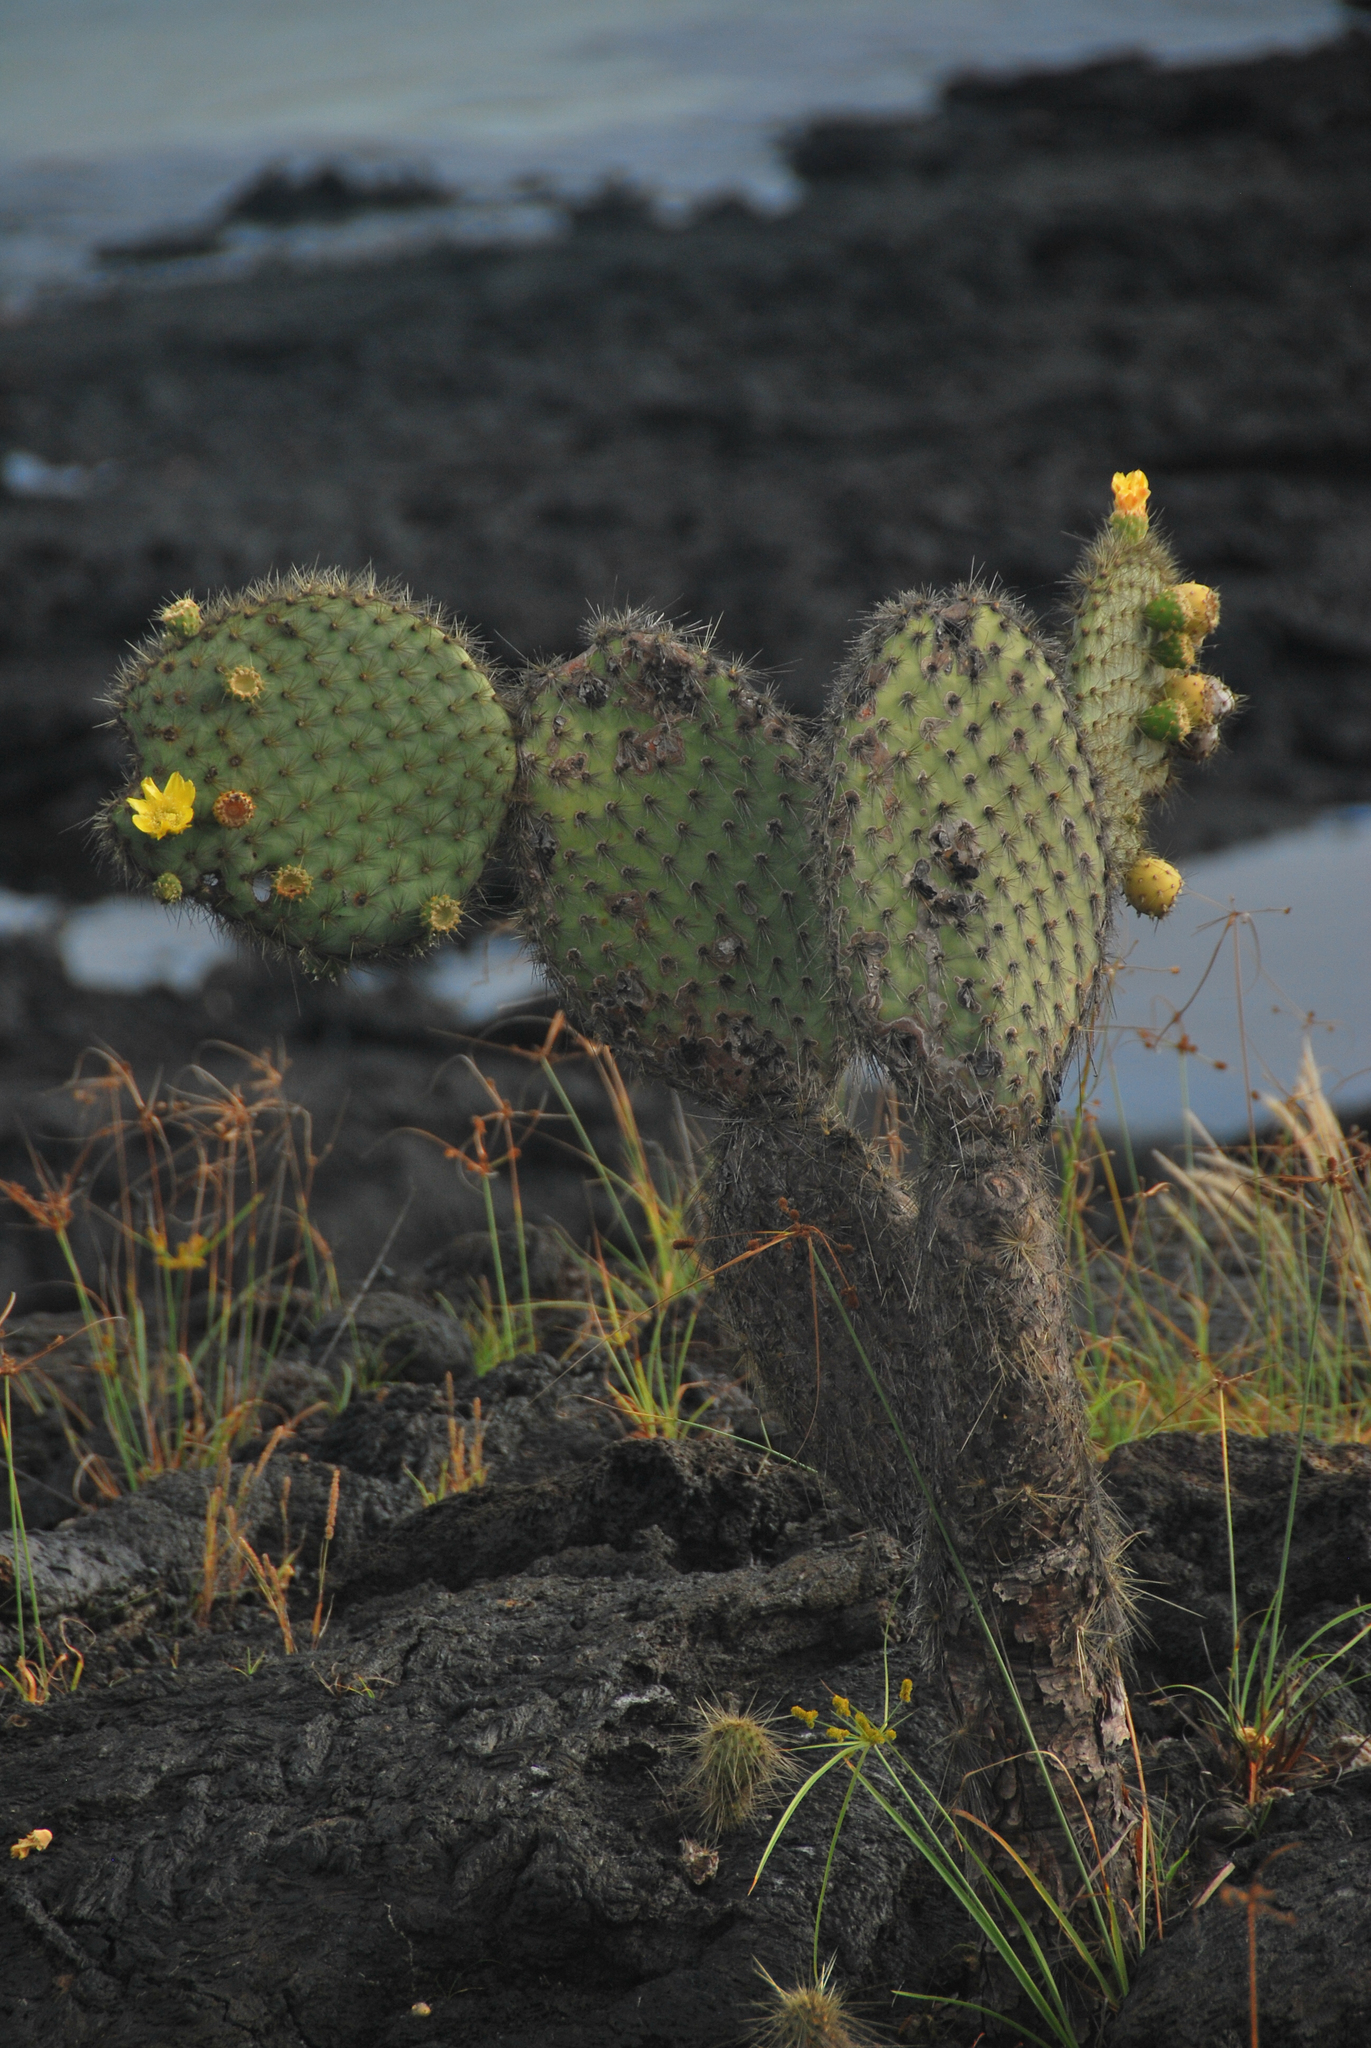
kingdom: Plantae
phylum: Tracheophyta
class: Magnoliopsida
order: Caryophyllales
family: Cactaceae
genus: Opuntia
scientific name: Opuntia galapageia
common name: Galápagos prickly pear
